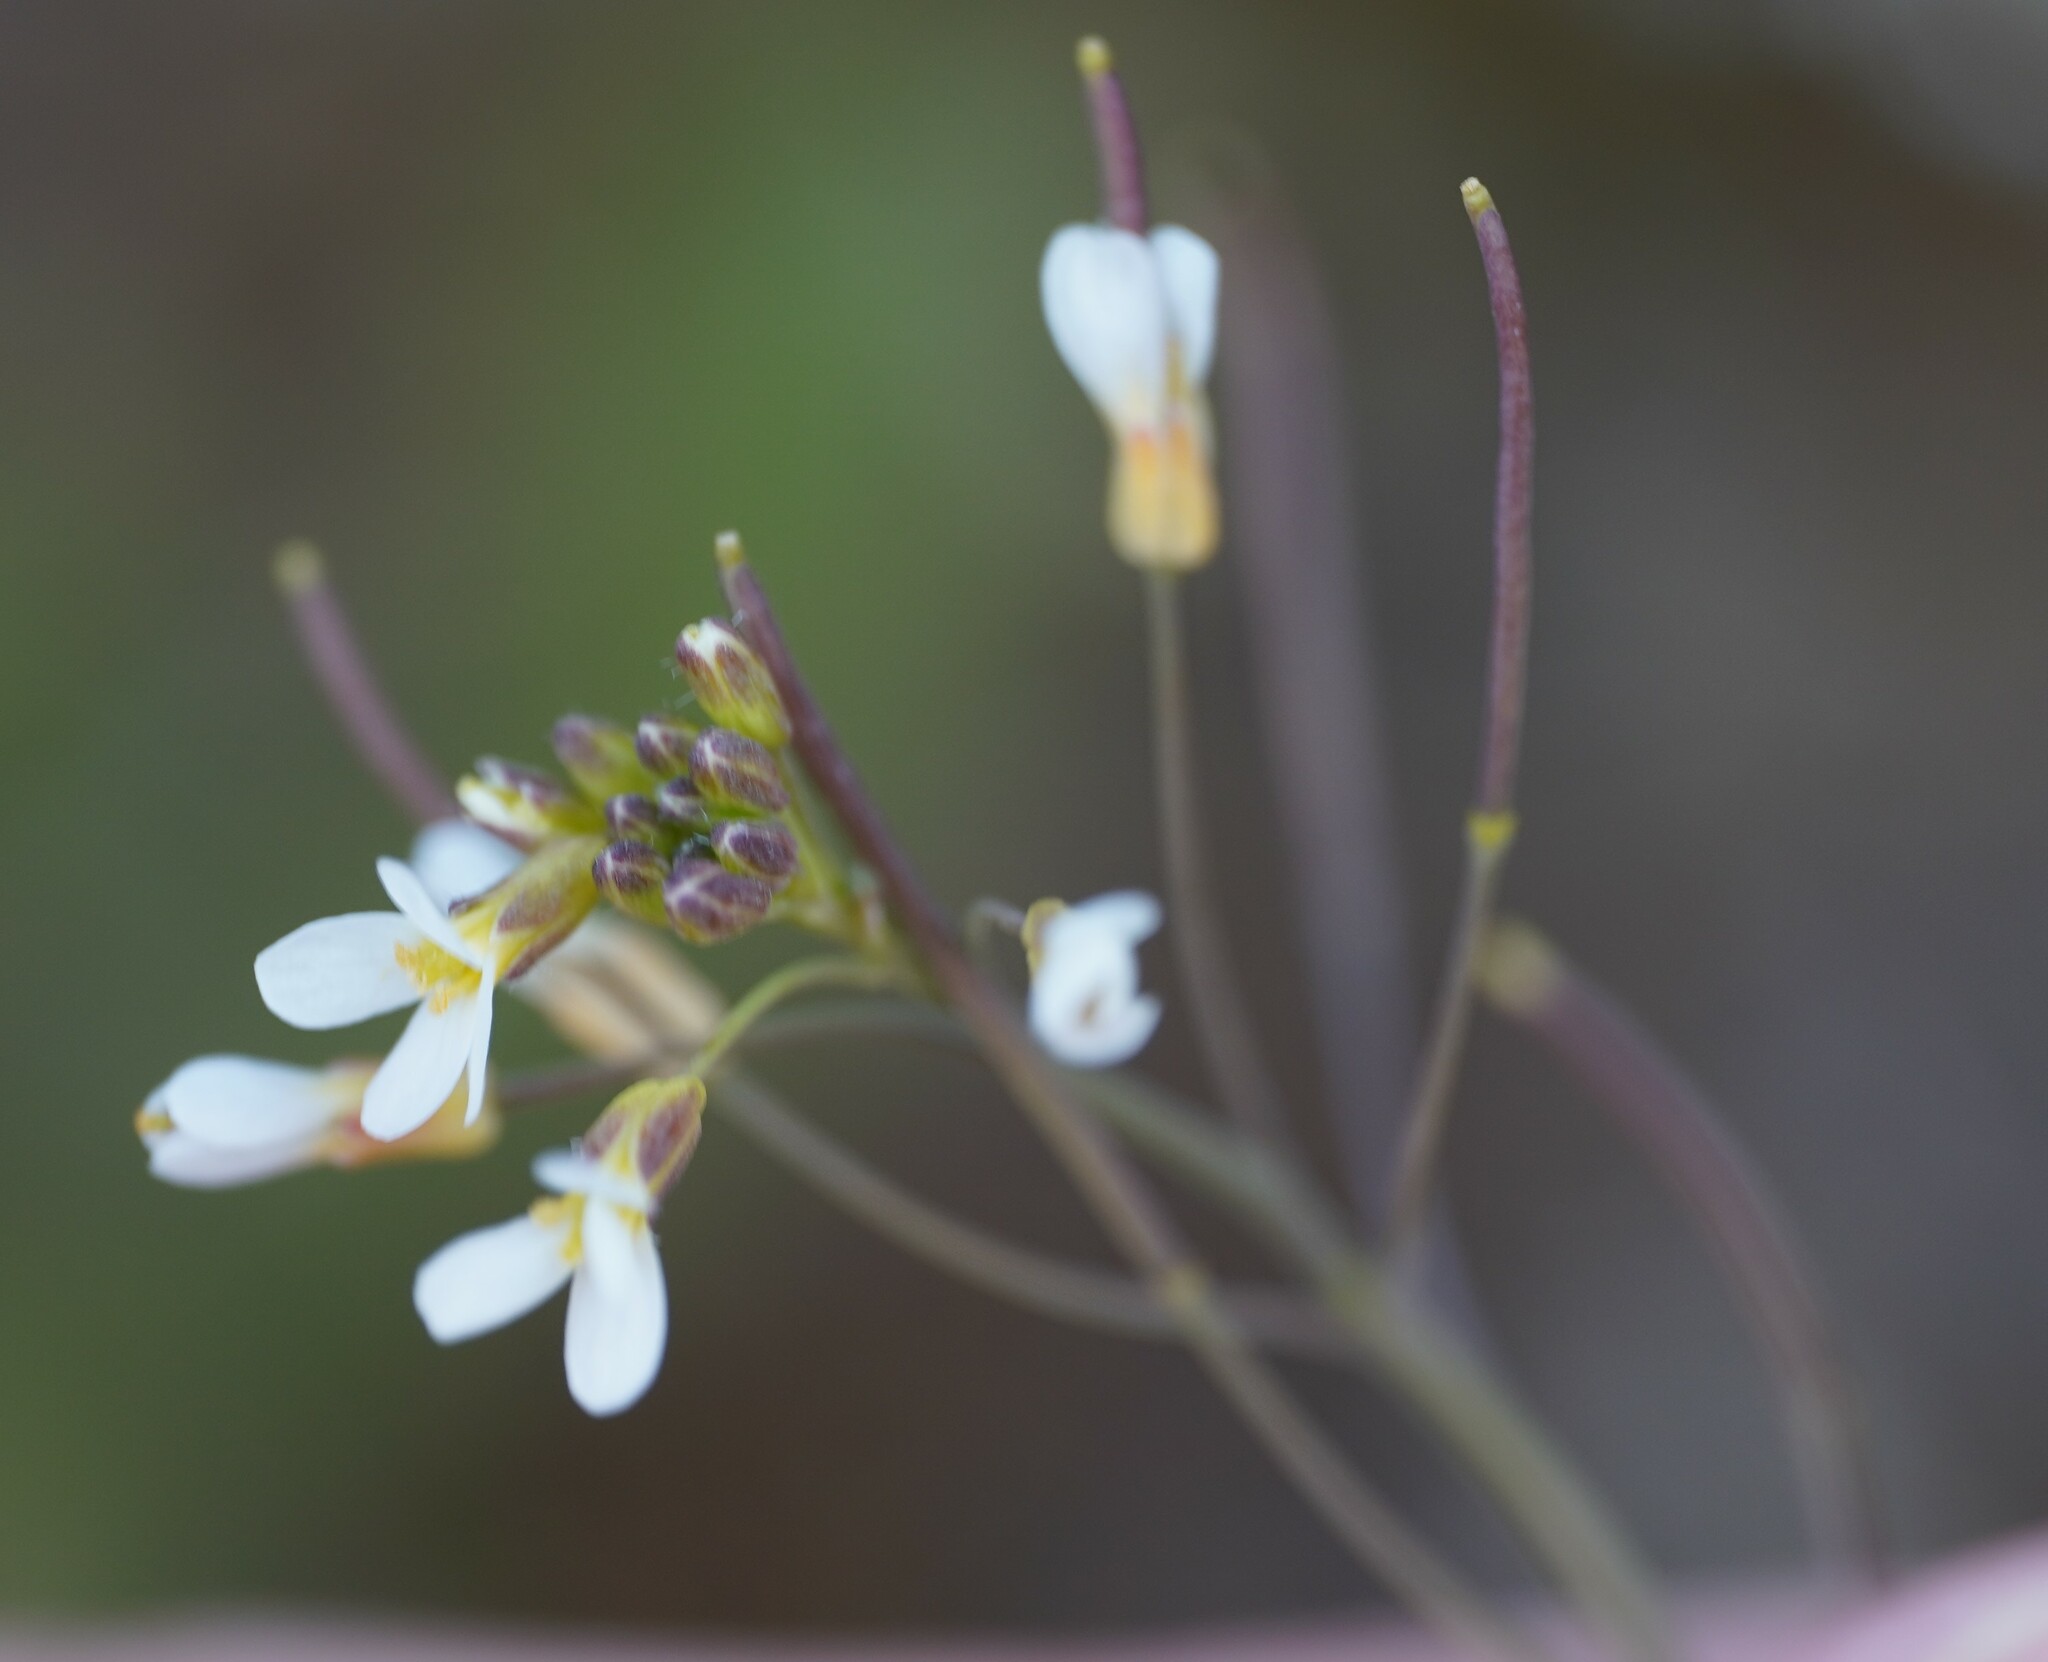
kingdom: Plantae
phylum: Tracheophyta
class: Magnoliopsida
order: Brassicales
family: Brassicaceae
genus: Arabidopsis
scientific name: Arabidopsis thaliana
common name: Thale cress
